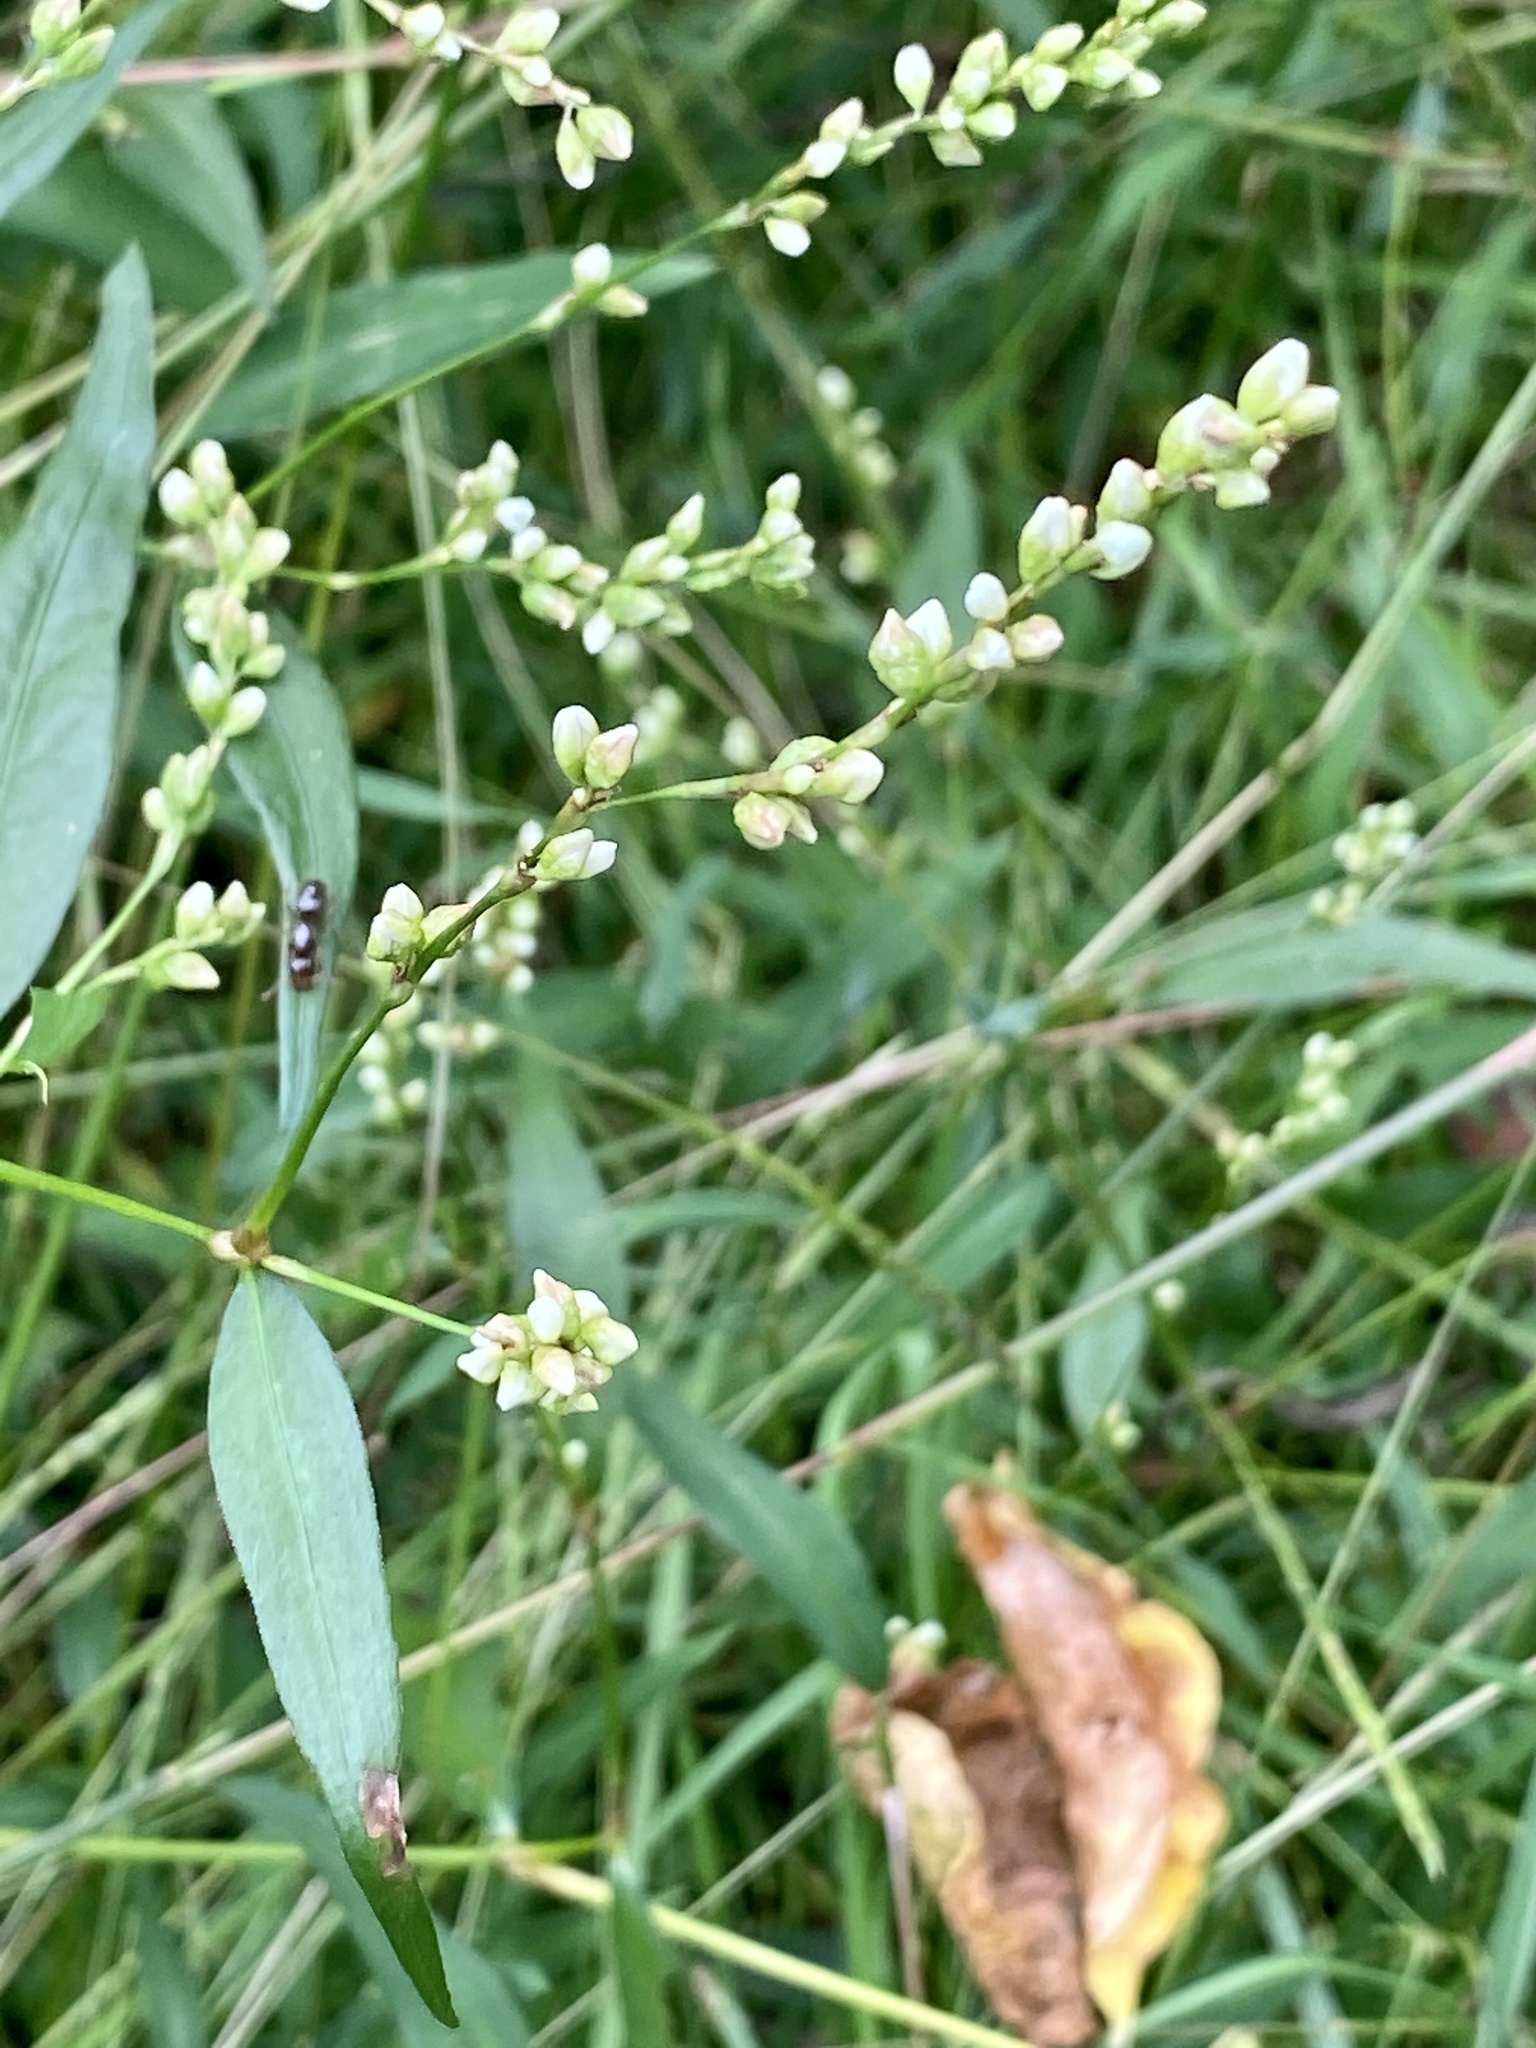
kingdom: Plantae
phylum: Tracheophyta
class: Magnoliopsida
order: Caryophyllales
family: Polygonaceae
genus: Persicaria
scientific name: Persicaria punctata
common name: Dotted smartweed
